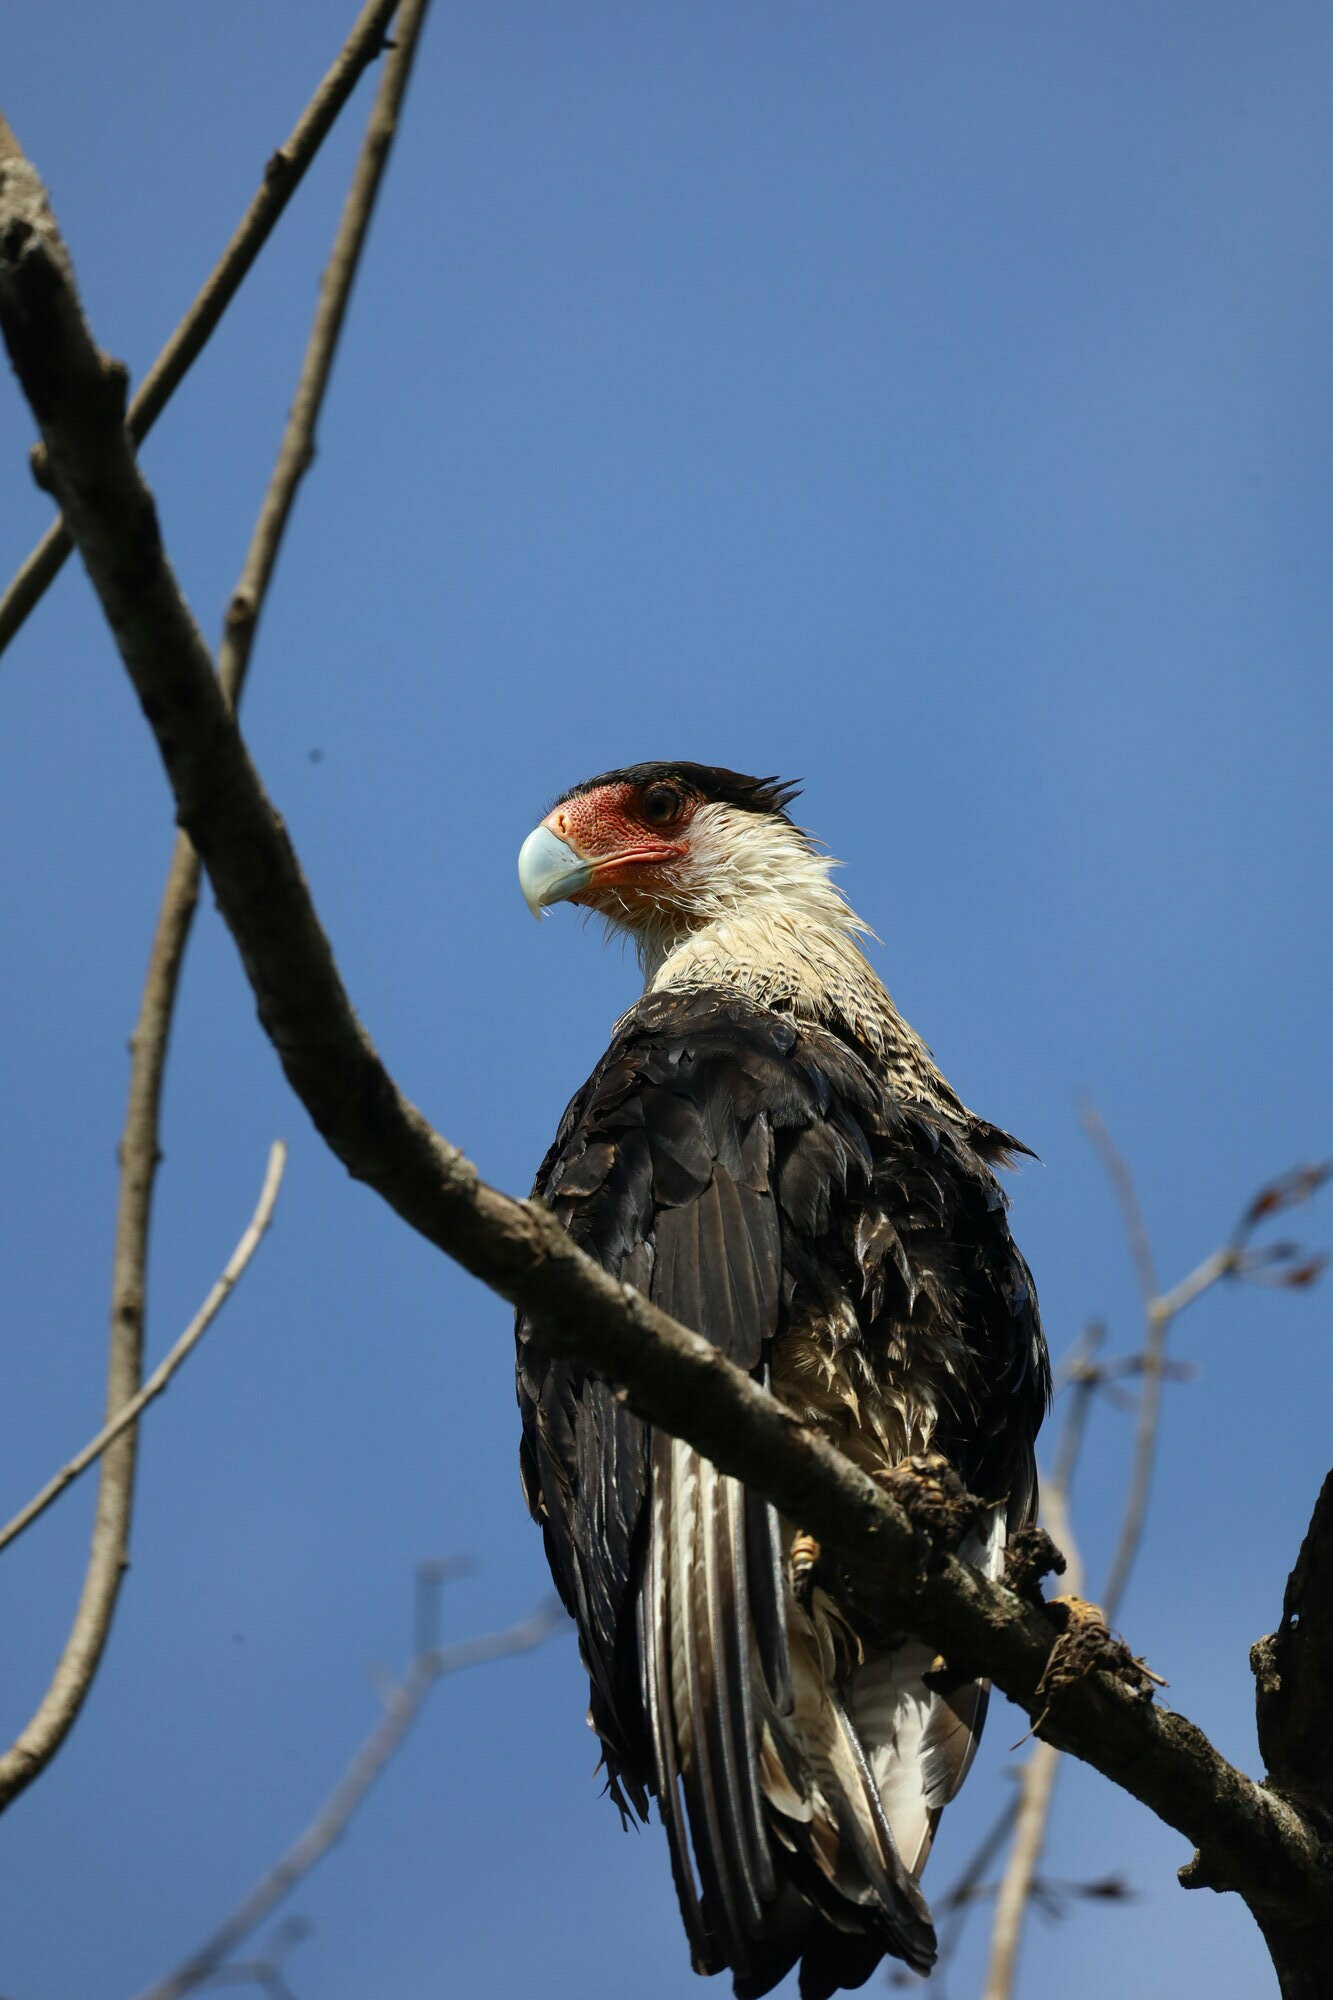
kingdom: Animalia
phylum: Chordata
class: Aves
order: Falconiformes
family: Falconidae
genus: Caracara
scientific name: Caracara plancus
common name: Southern caracara
